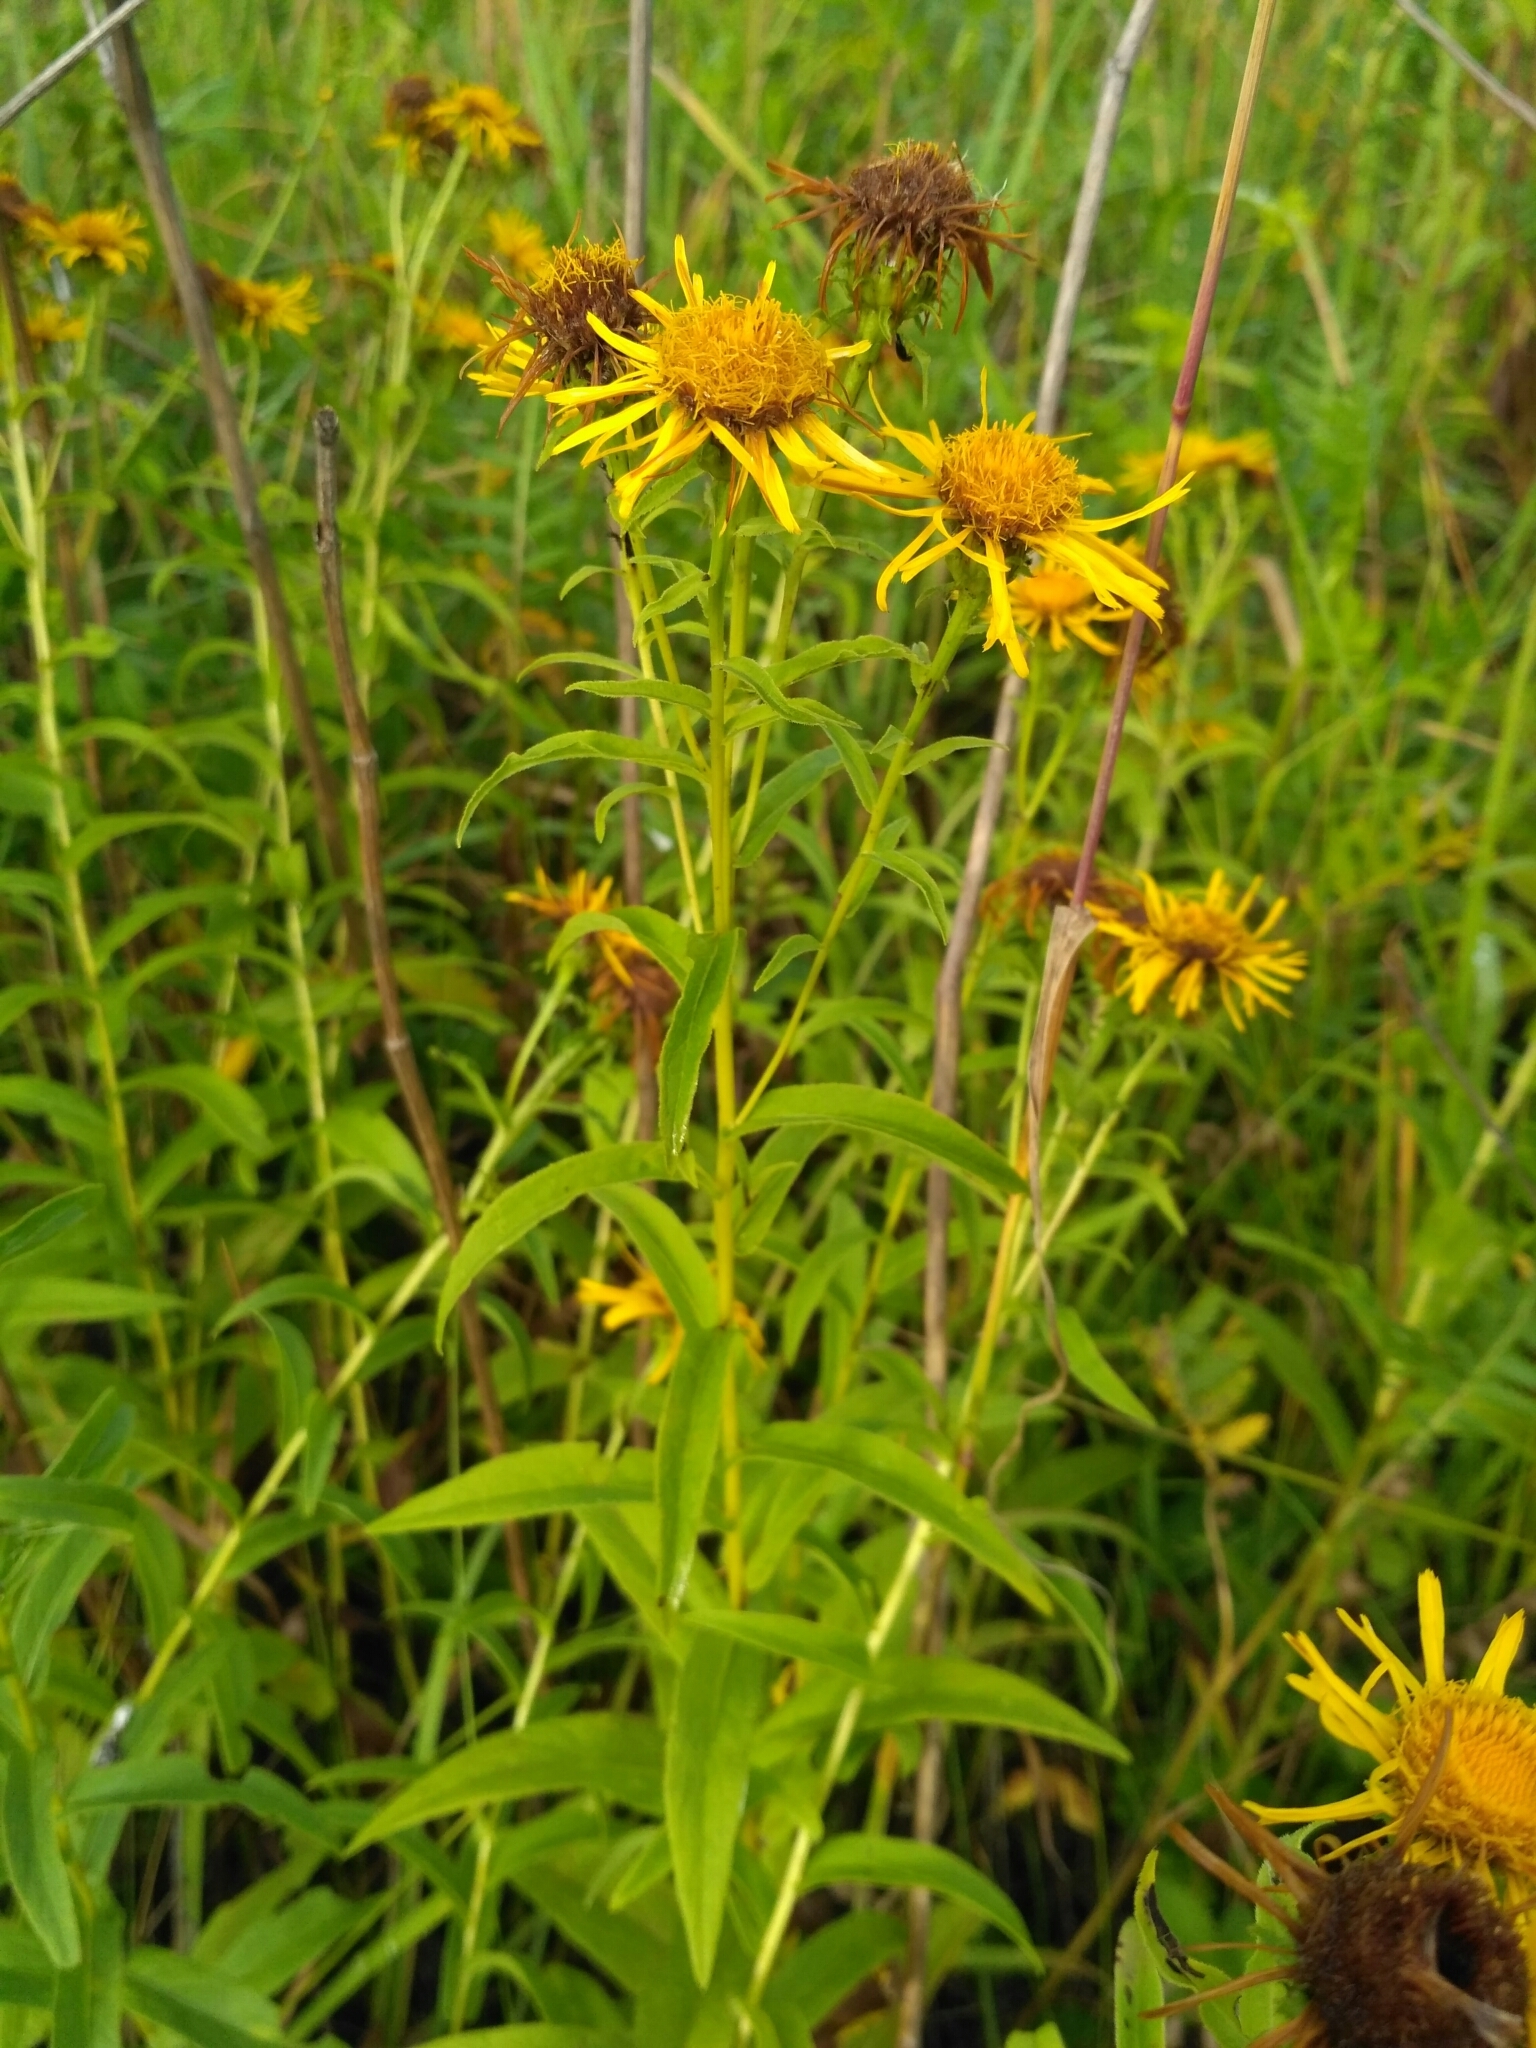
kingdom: Plantae
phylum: Tracheophyta
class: Magnoliopsida
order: Asterales
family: Asteraceae
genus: Pentanema
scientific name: Pentanema salicinum
